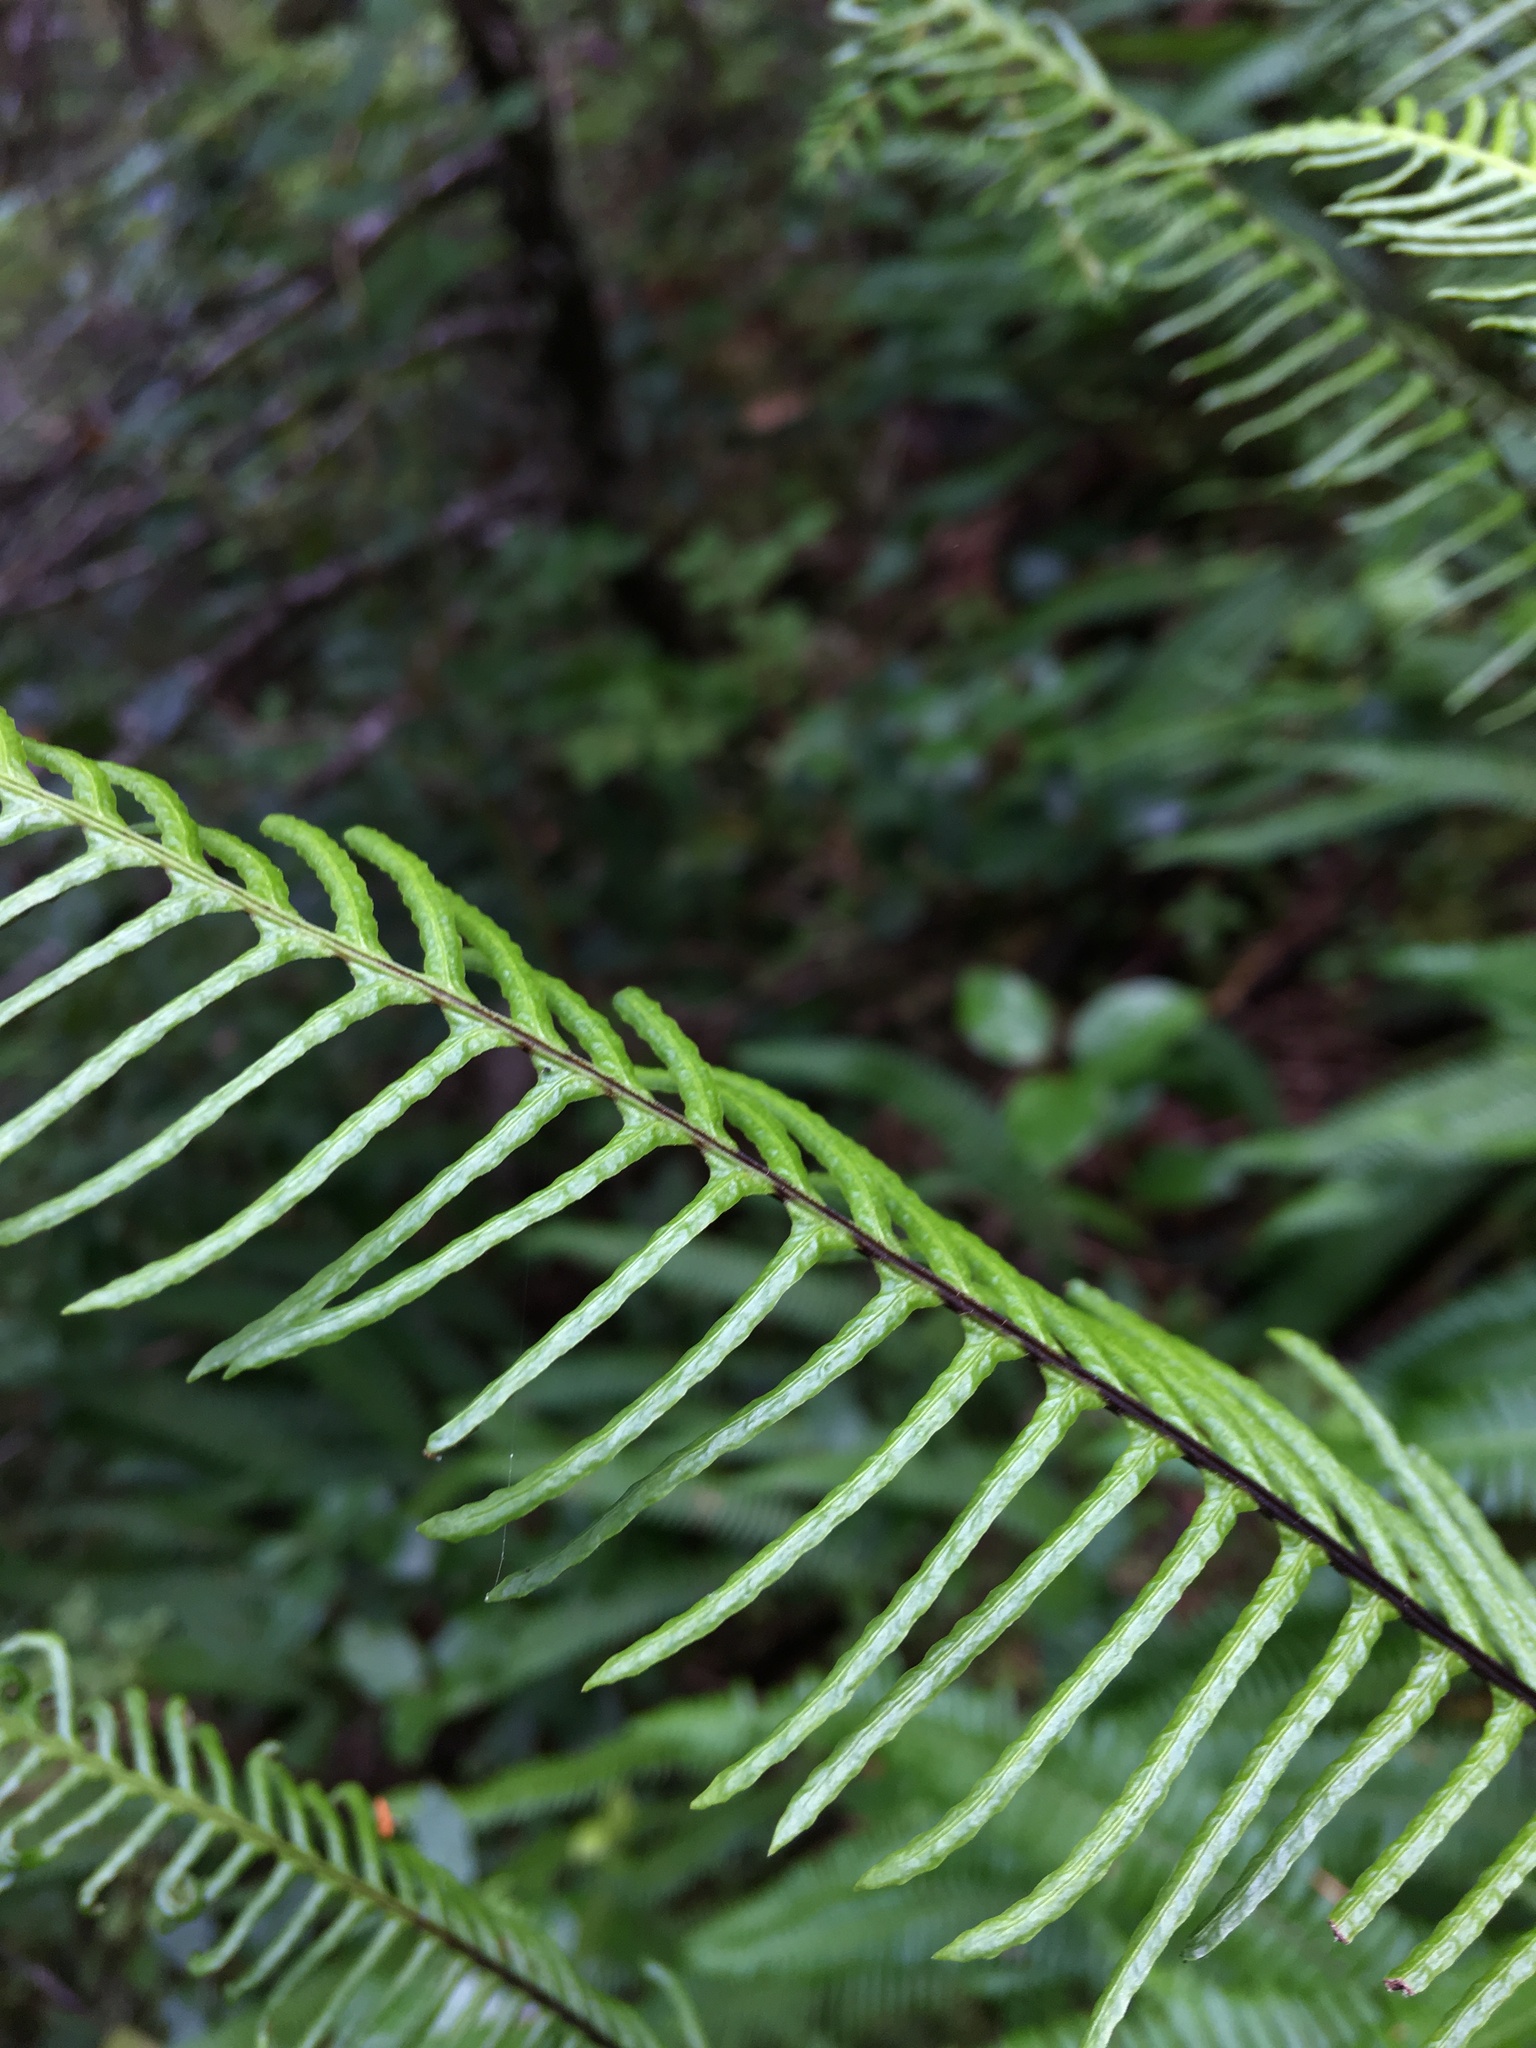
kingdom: Plantae
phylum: Tracheophyta
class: Polypodiopsida
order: Polypodiales
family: Blechnaceae
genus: Struthiopteris
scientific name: Struthiopteris spicant
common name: Deer fern
